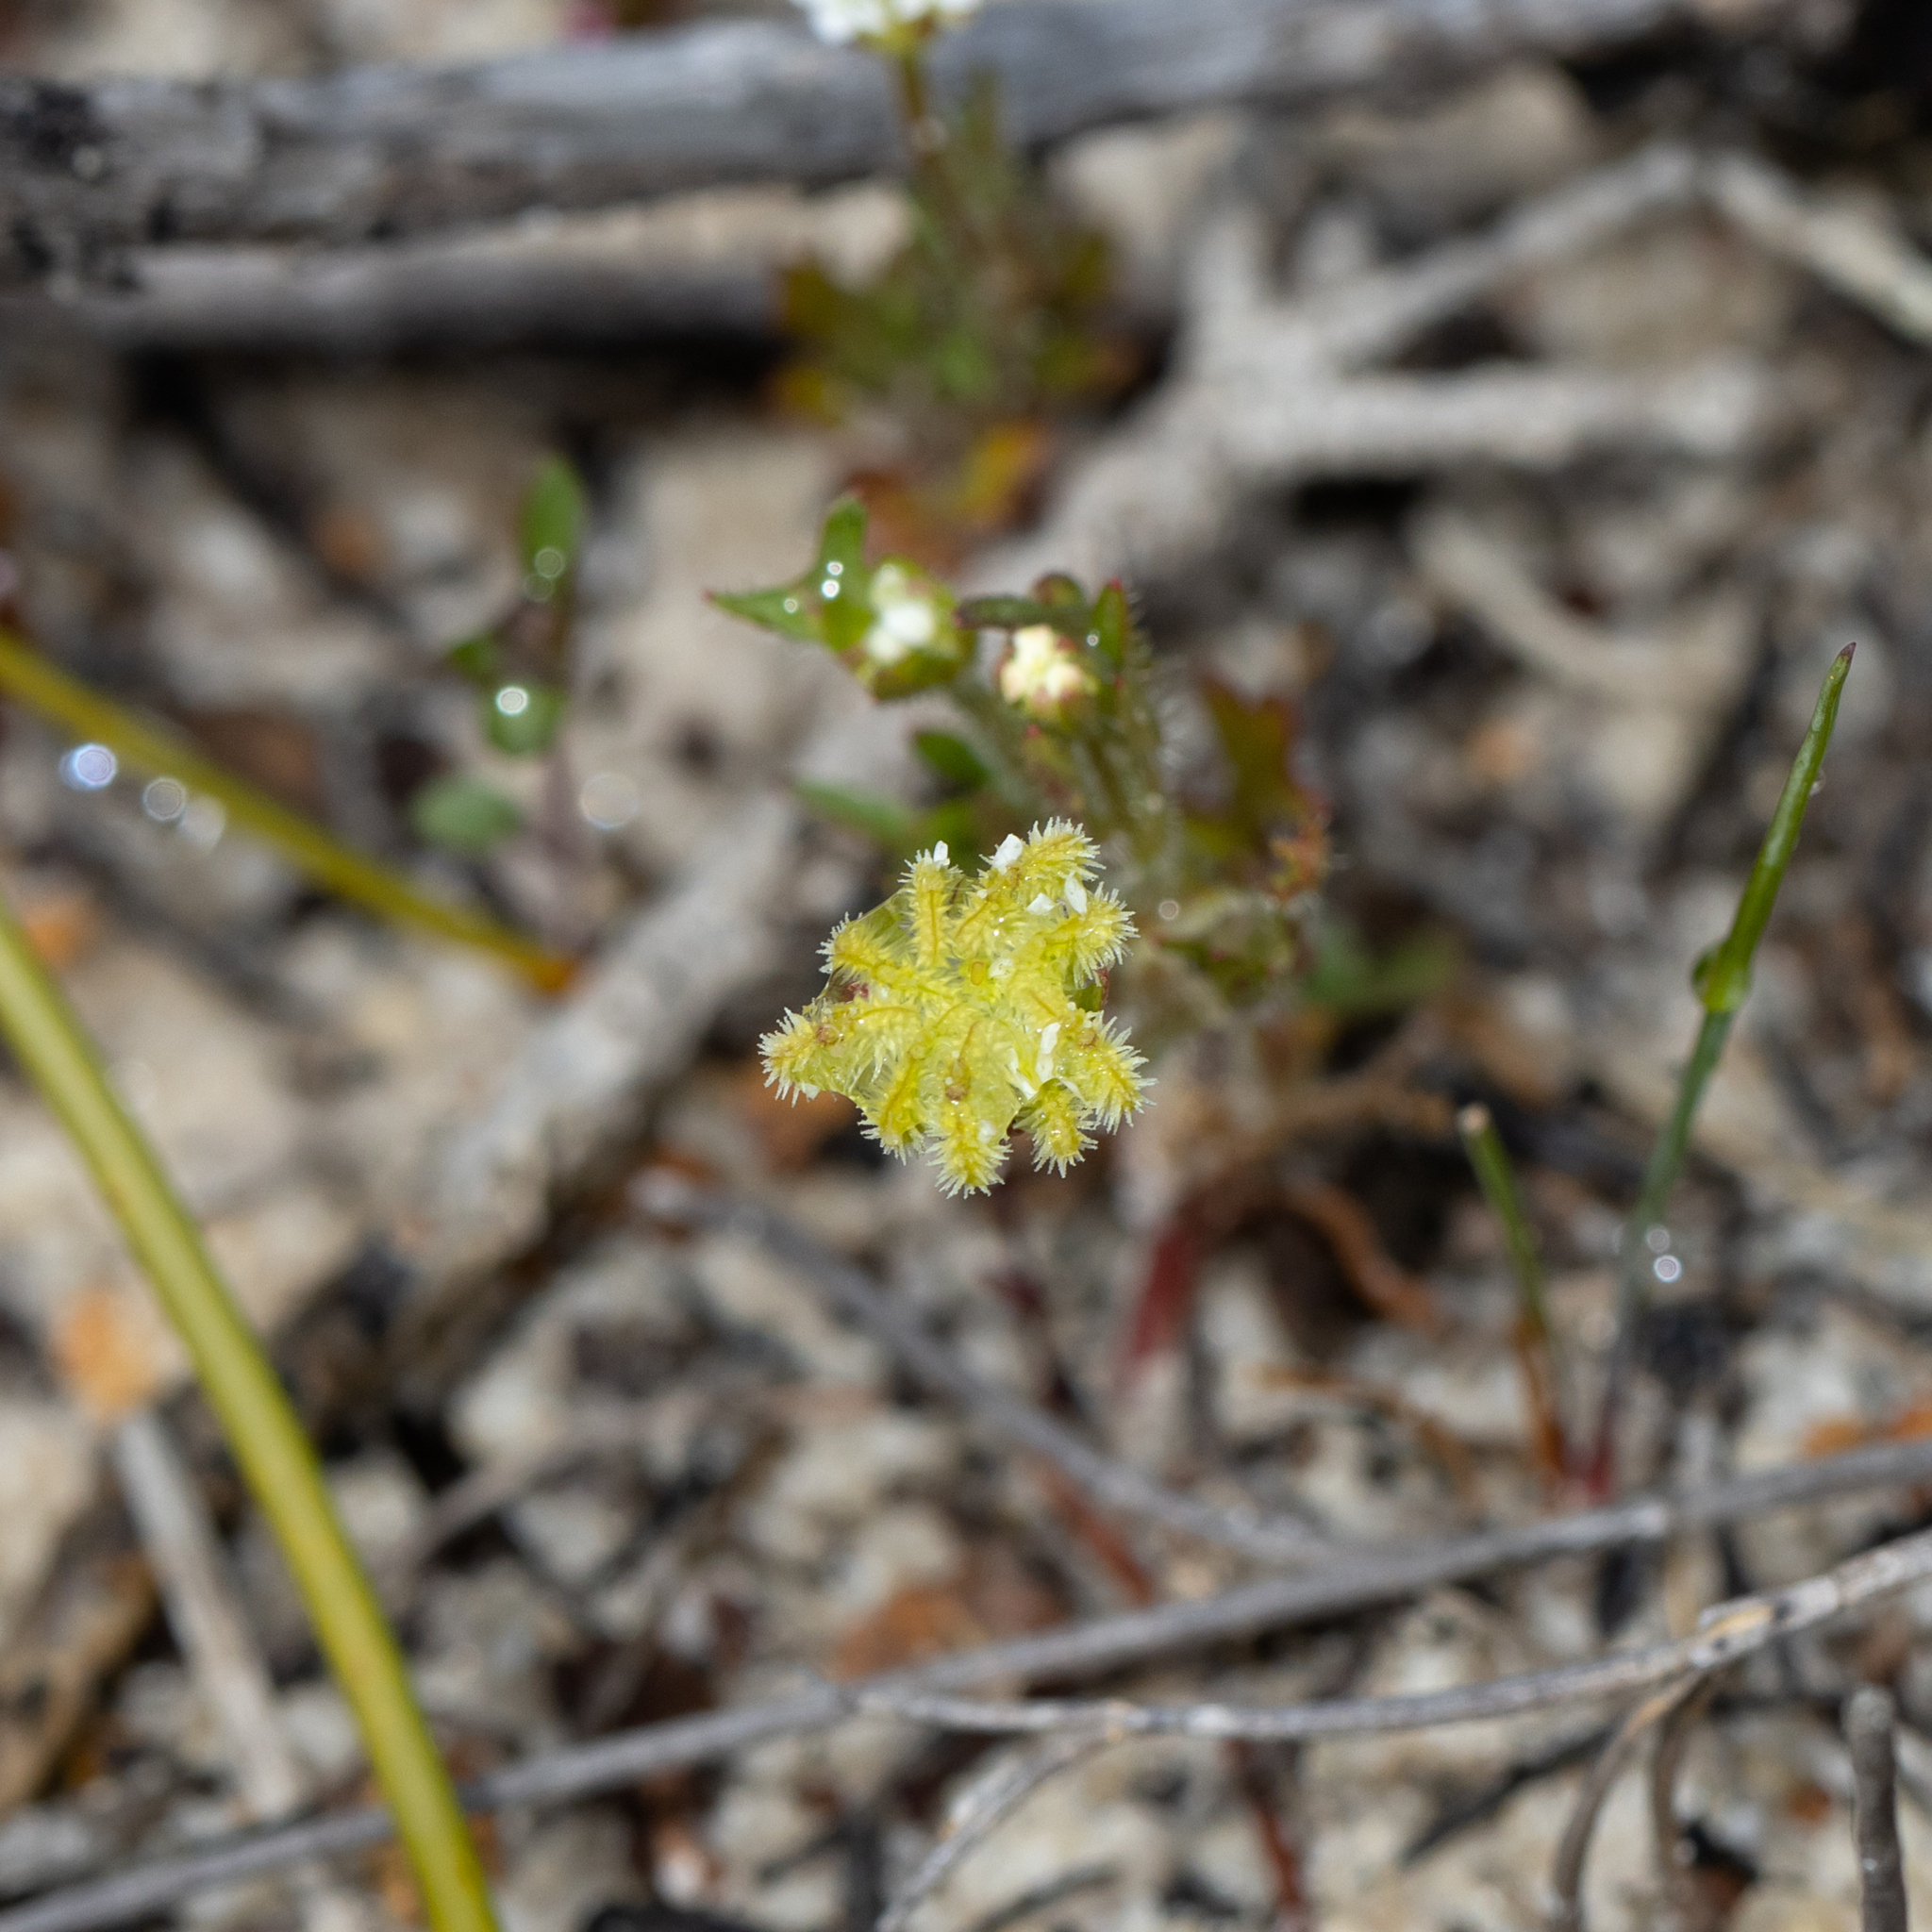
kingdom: Plantae
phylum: Tracheophyta
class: Magnoliopsida
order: Apiales
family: Araliaceae
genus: Trachymene
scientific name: Trachymene pilosa
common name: Dwarf trachymene
